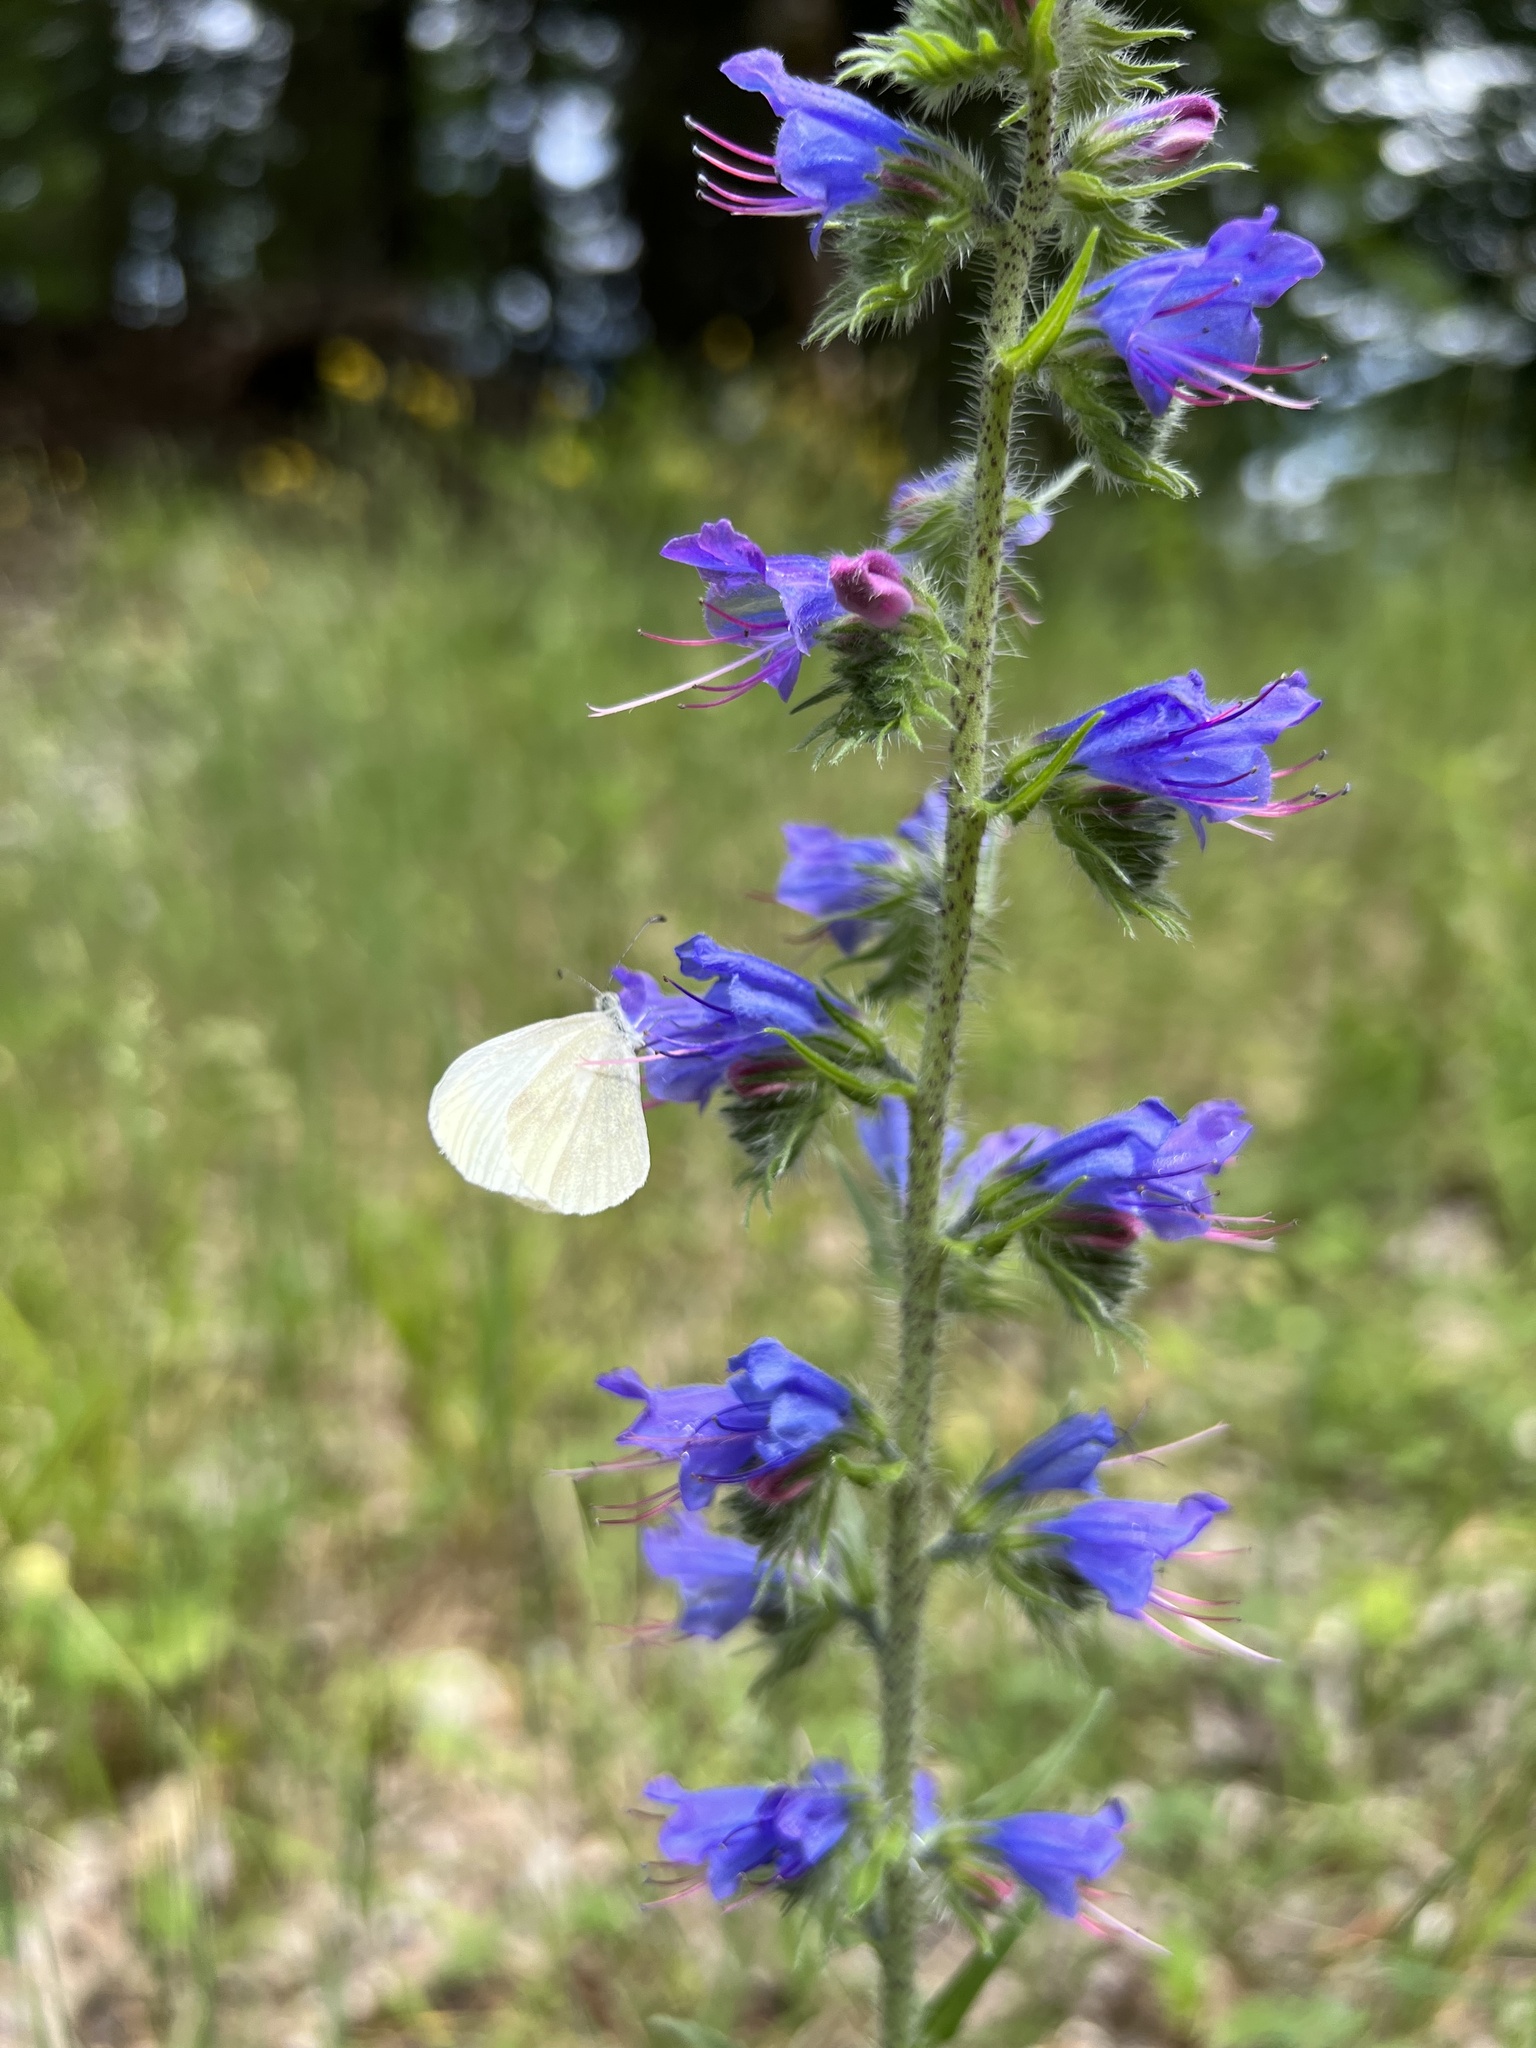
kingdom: Plantae
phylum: Tracheophyta
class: Magnoliopsida
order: Boraginales
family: Boraginaceae
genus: Echium
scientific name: Echium vulgare
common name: Common viper's bugloss
